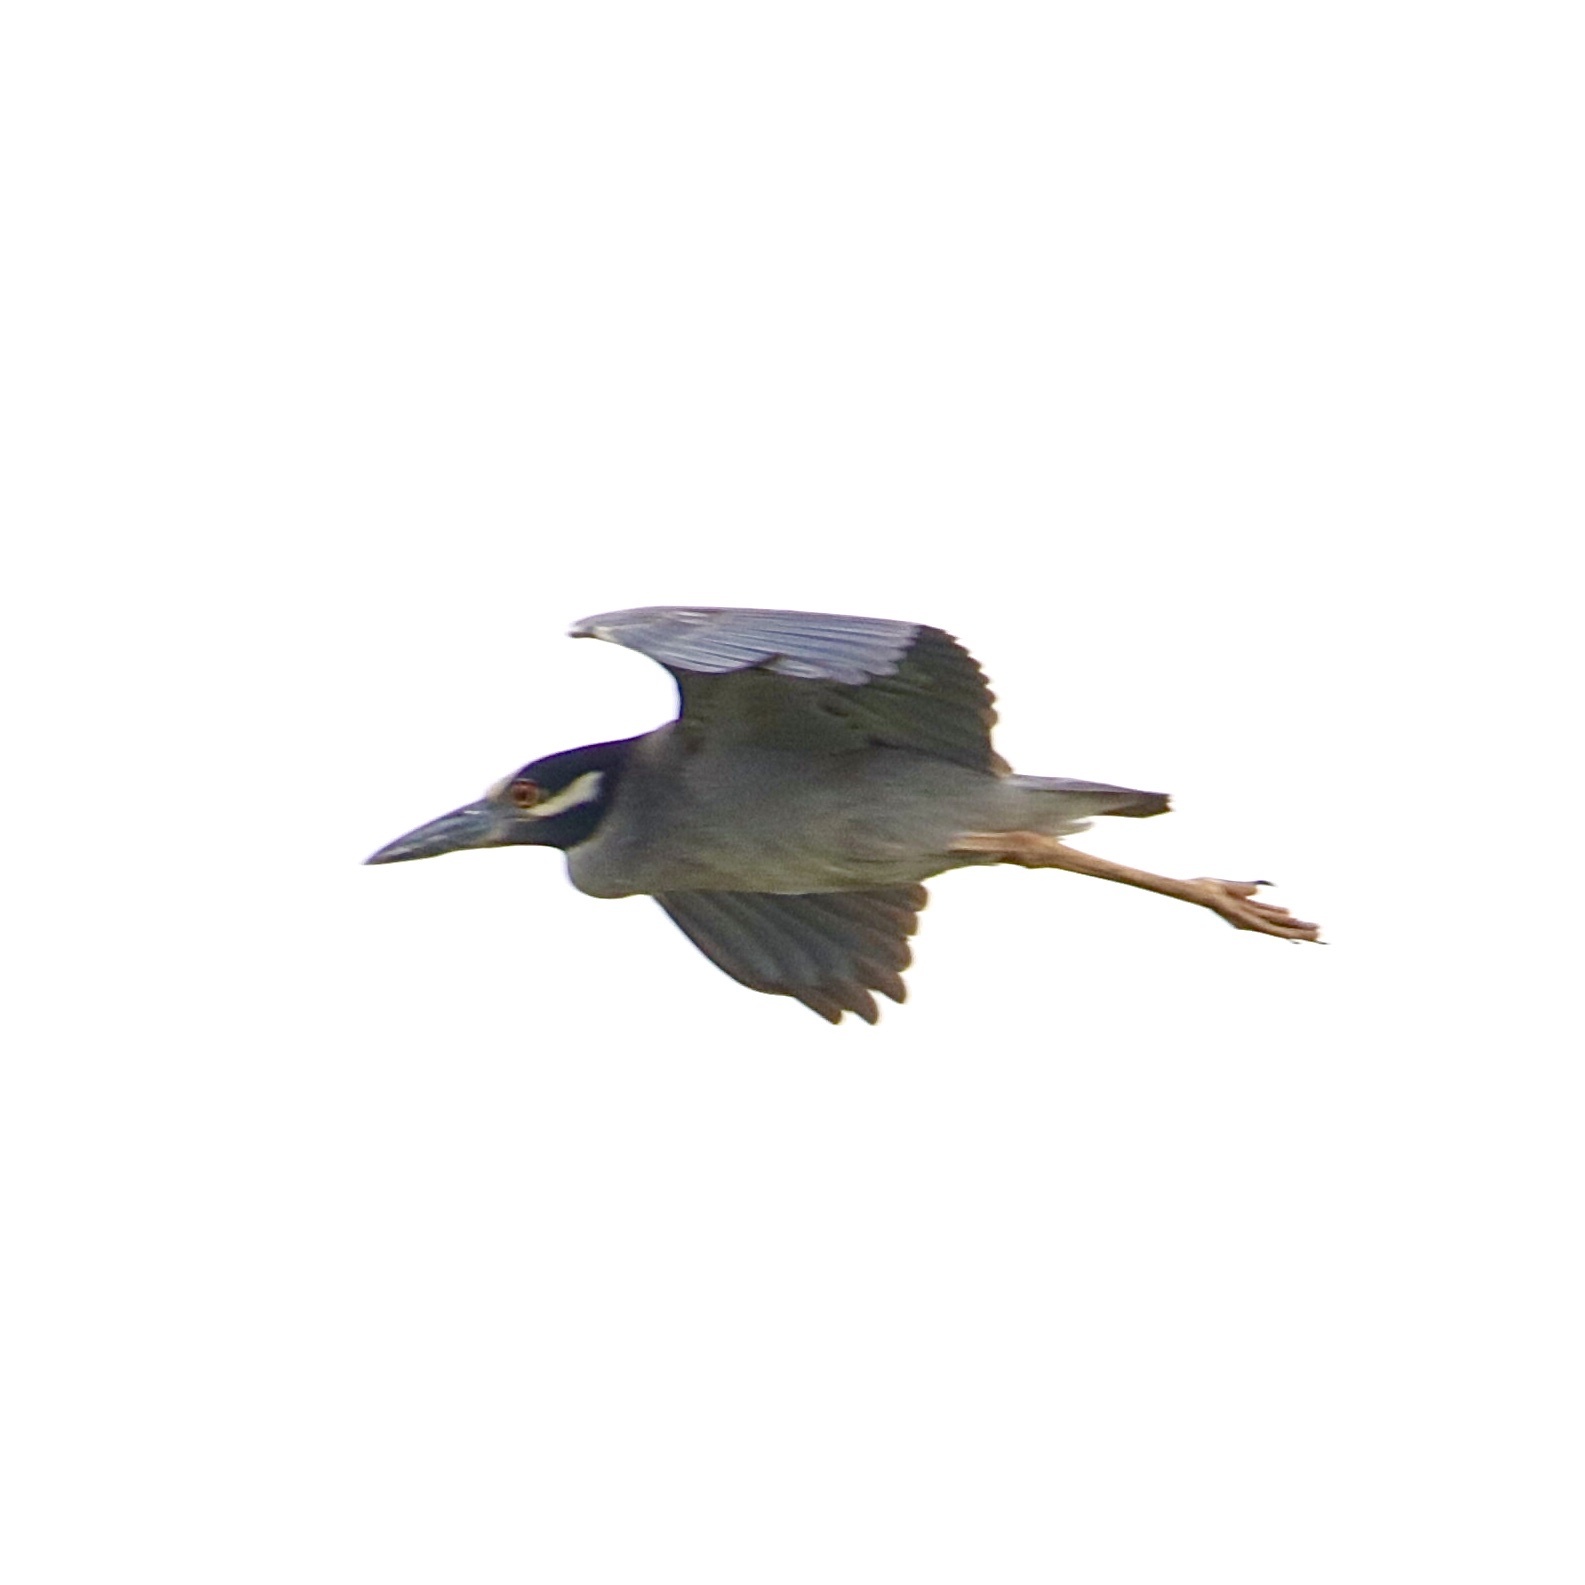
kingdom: Animalia
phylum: Chordata
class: Aves
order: Pelecaniformes
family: Ardeidae
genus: Nyctanassa
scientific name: Nyctanassa violacea
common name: Yellow-crowned night heron
